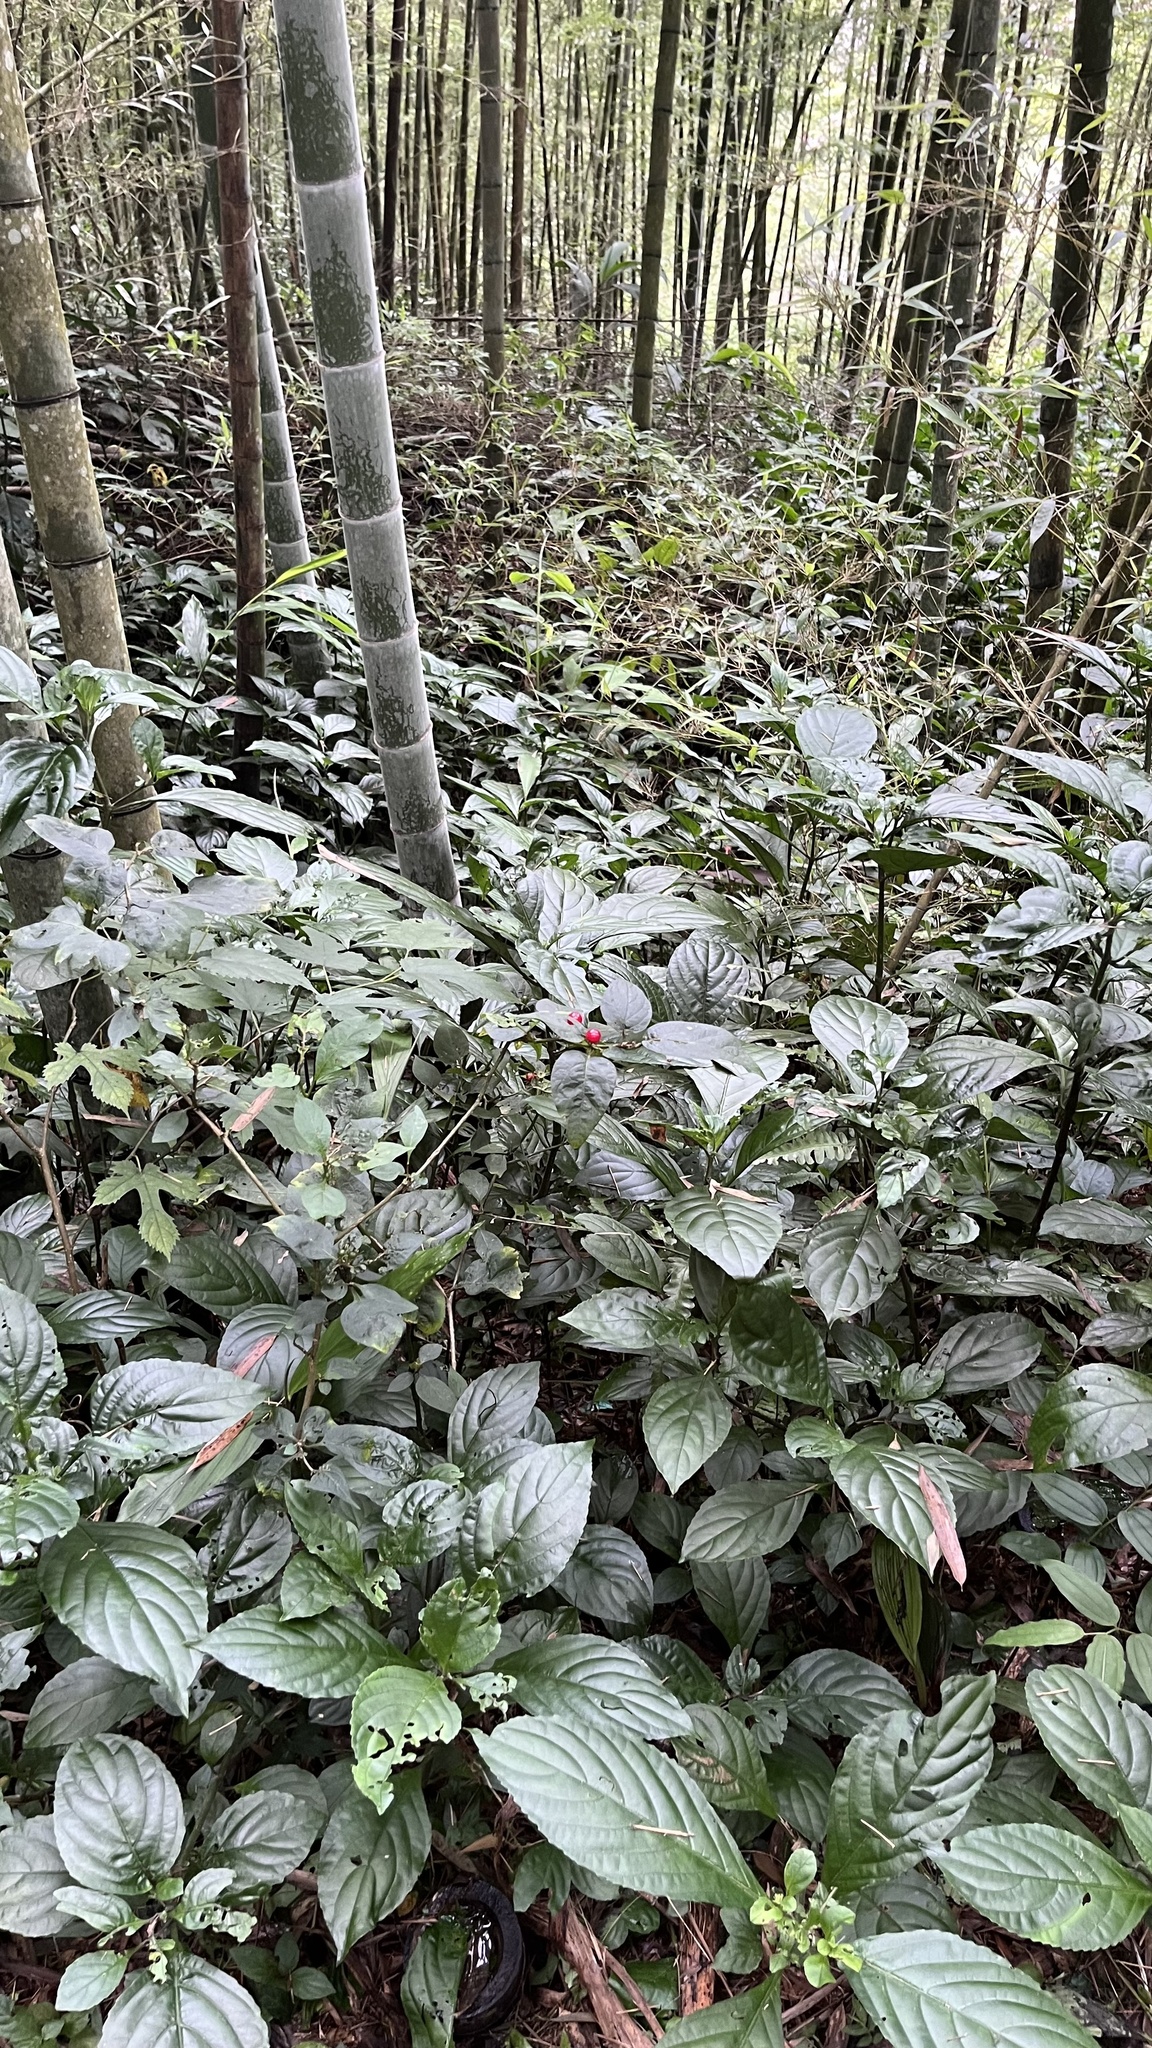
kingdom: Plantae
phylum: Tracheophyta
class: Magnoliopsida
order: Solanales
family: Solanaceae
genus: Lycianthes
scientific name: Lycianthes biflora
